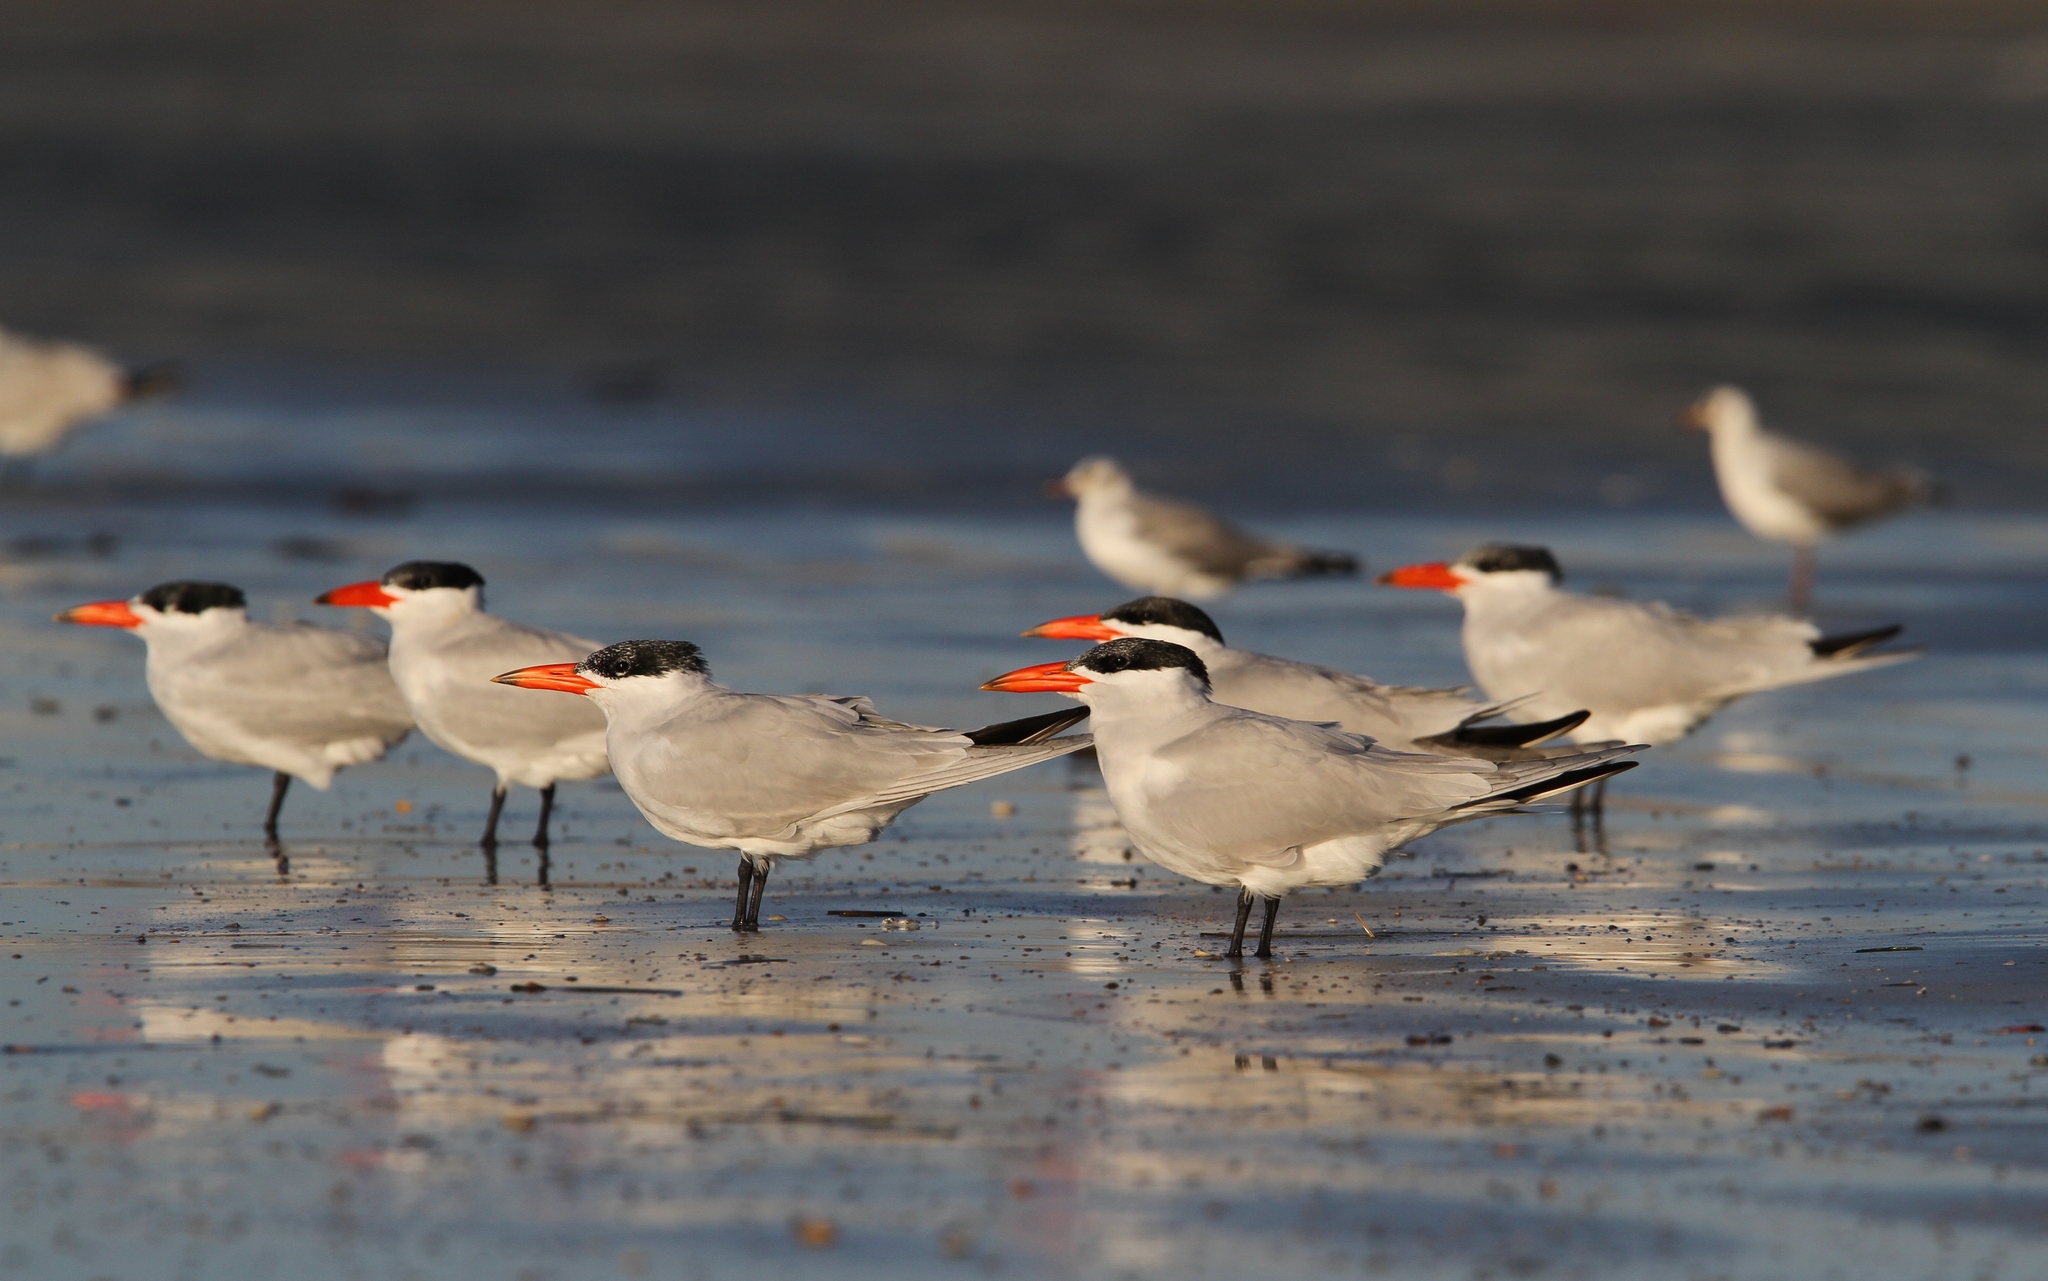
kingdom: Animalia
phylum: Chordata
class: Aves
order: Charadriiformes
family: Laridae
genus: Hydroprogne
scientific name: Hydroprogne caspia
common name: Caspian tern
